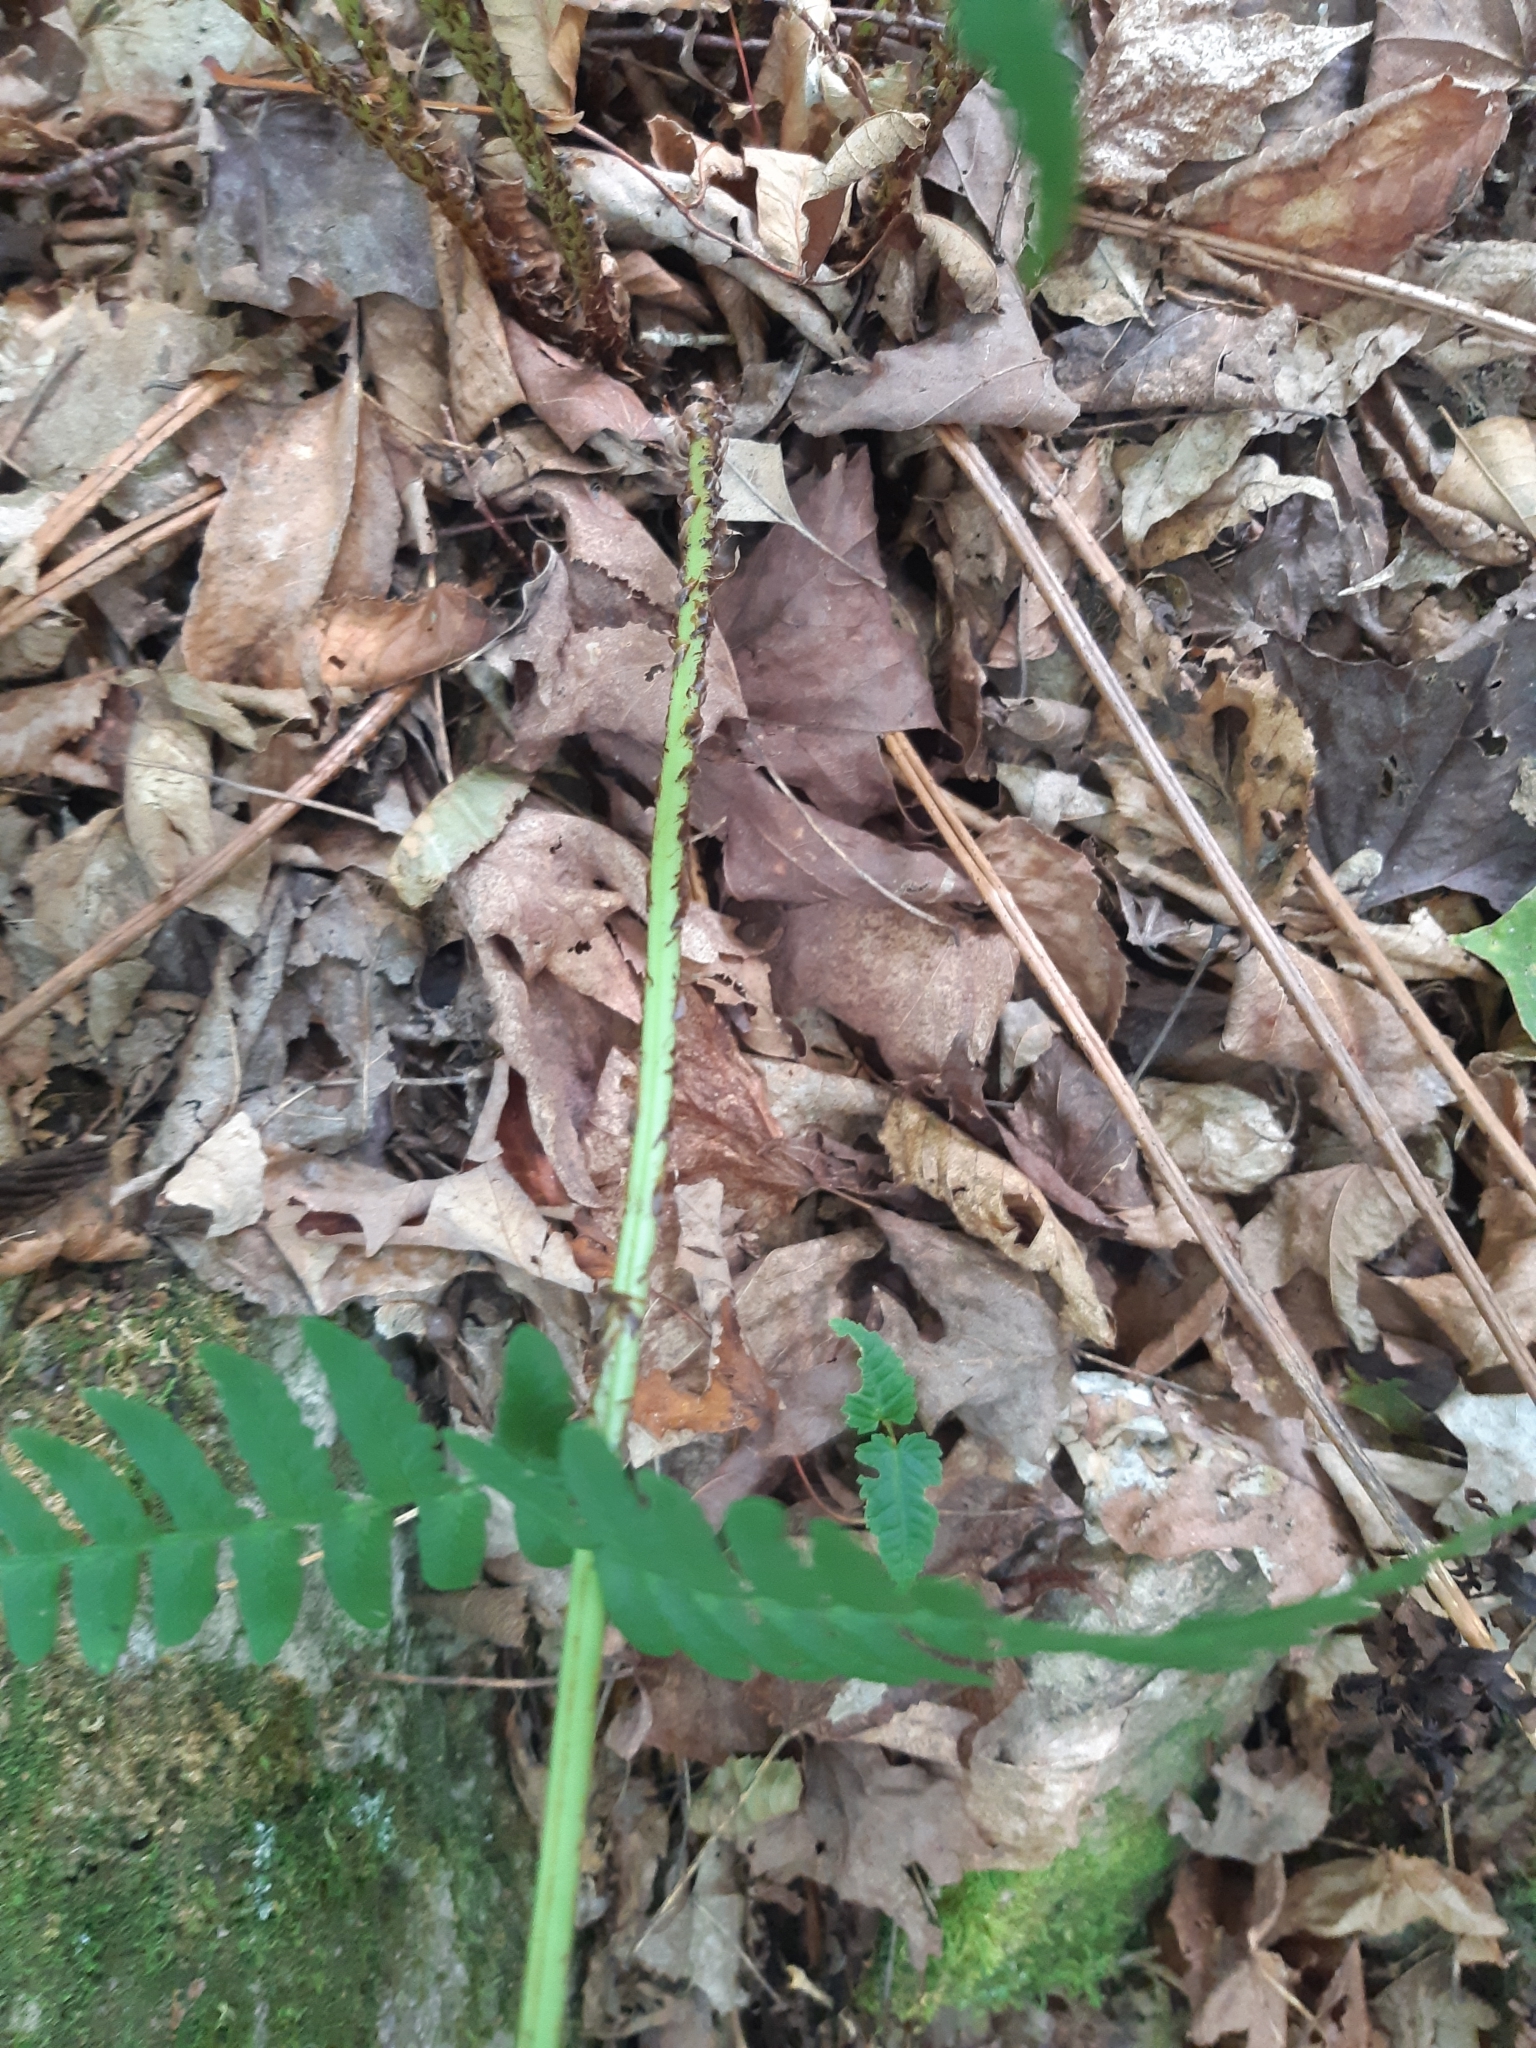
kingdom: Plantae
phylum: Tracheophyta
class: Polypodiopsida
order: Polypodiales
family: Dryopteridaceae
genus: Dryopteris
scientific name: Dryopteris marginalis
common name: Marginal wood fern
